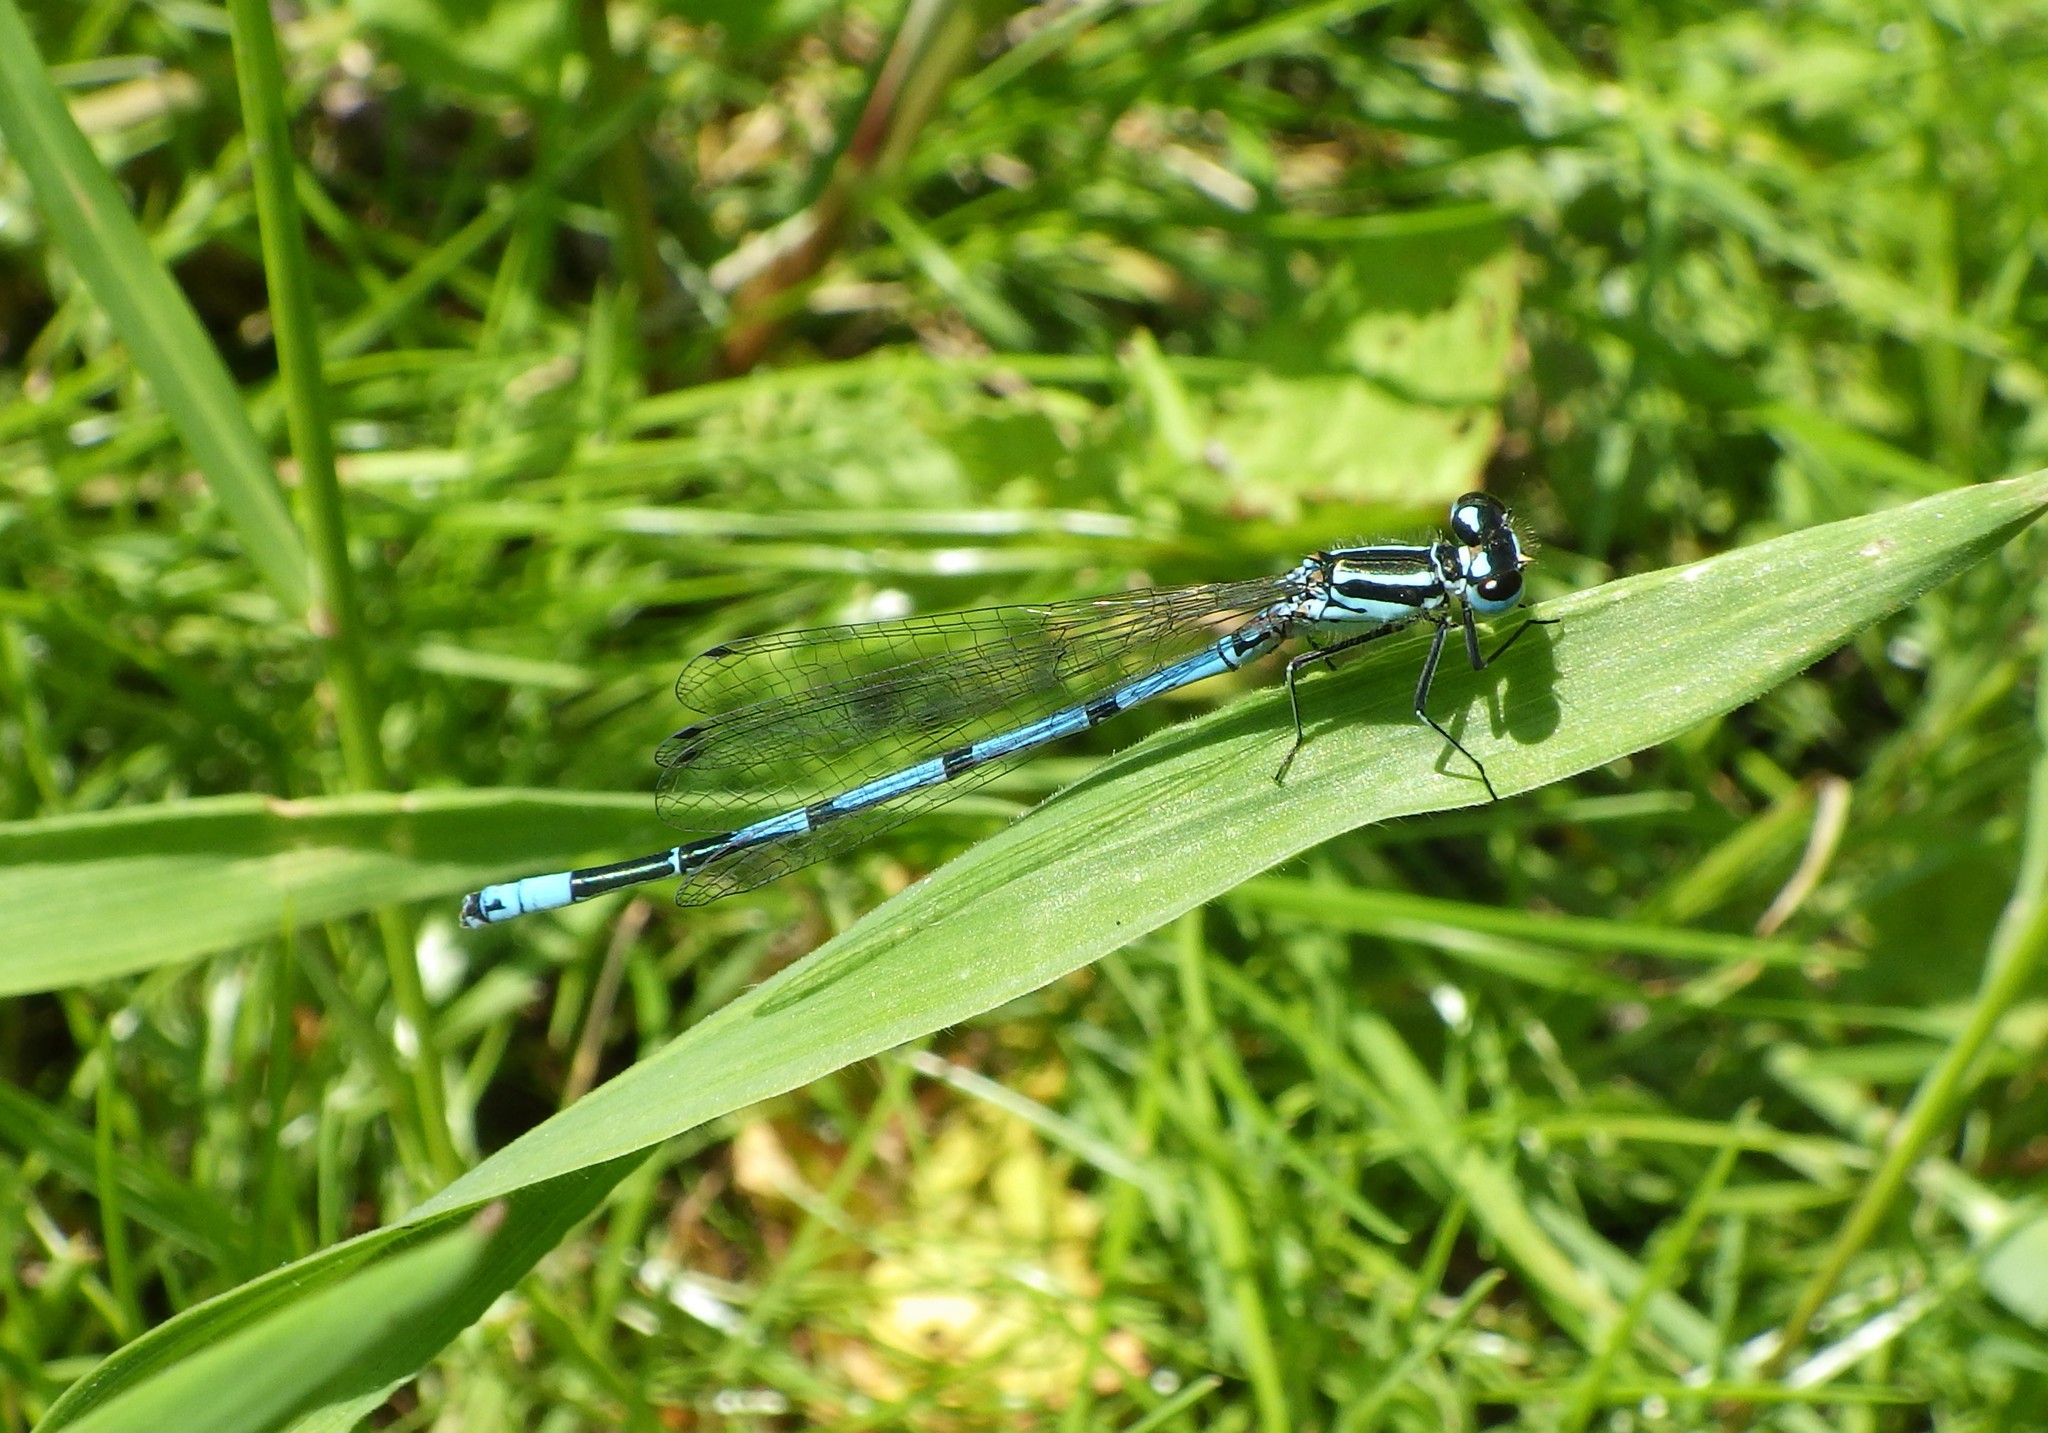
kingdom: Animalia
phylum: Arthropoda
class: Insecta
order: Odonata
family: Coenagrionidae
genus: Coenagrion
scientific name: Coenagrion puella
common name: Azure damselfly
